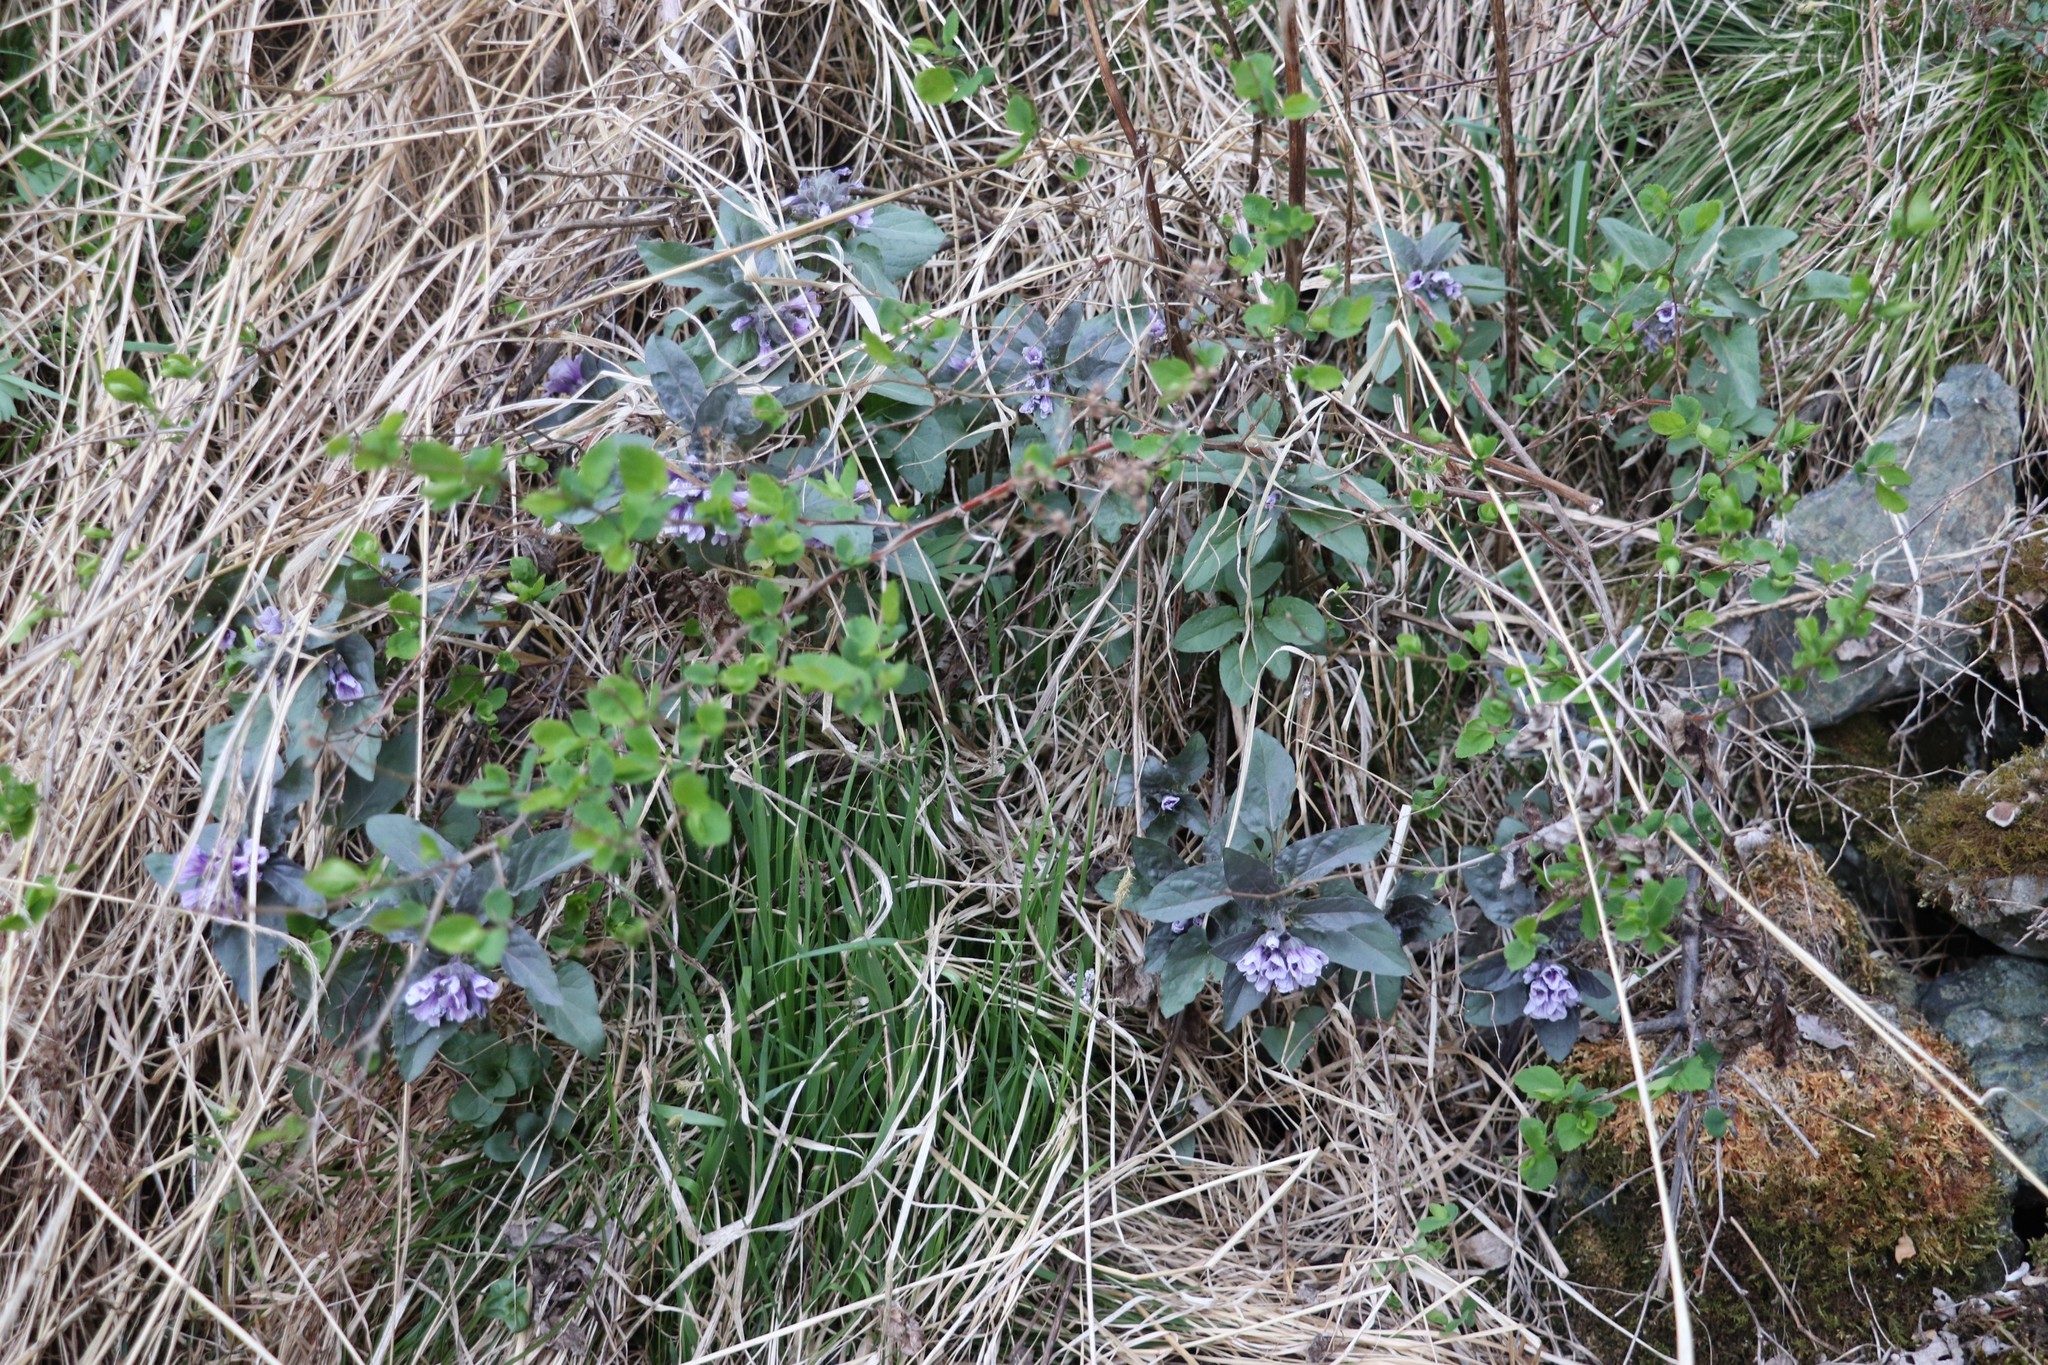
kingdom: Plantae
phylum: Tracheophyta
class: Magnoliopsida
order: Solanales
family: Solanaceae
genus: Physochlaina
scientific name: Physochlaina physaloides
